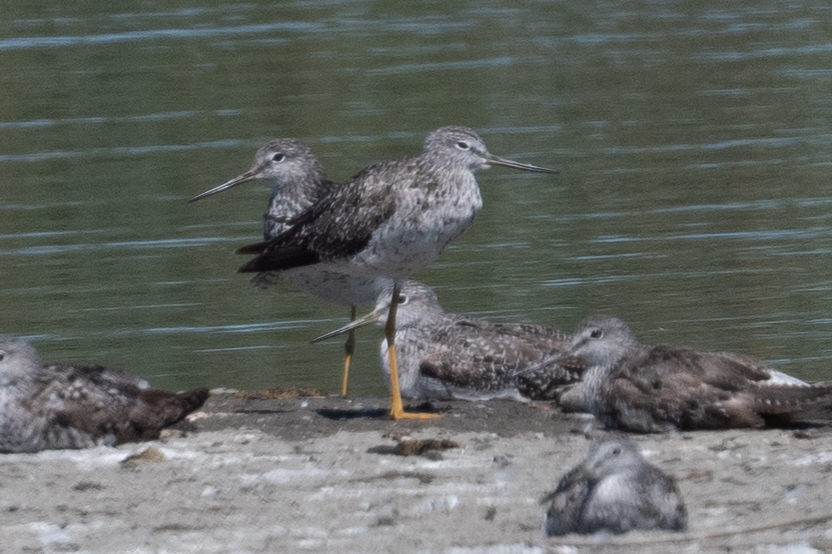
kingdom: Animalia
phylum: Chordata
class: Aves
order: Charadriiformes
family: Scolopacidae
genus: Tringa
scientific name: Tringa melanoleuca
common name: Greater yellowlegs
